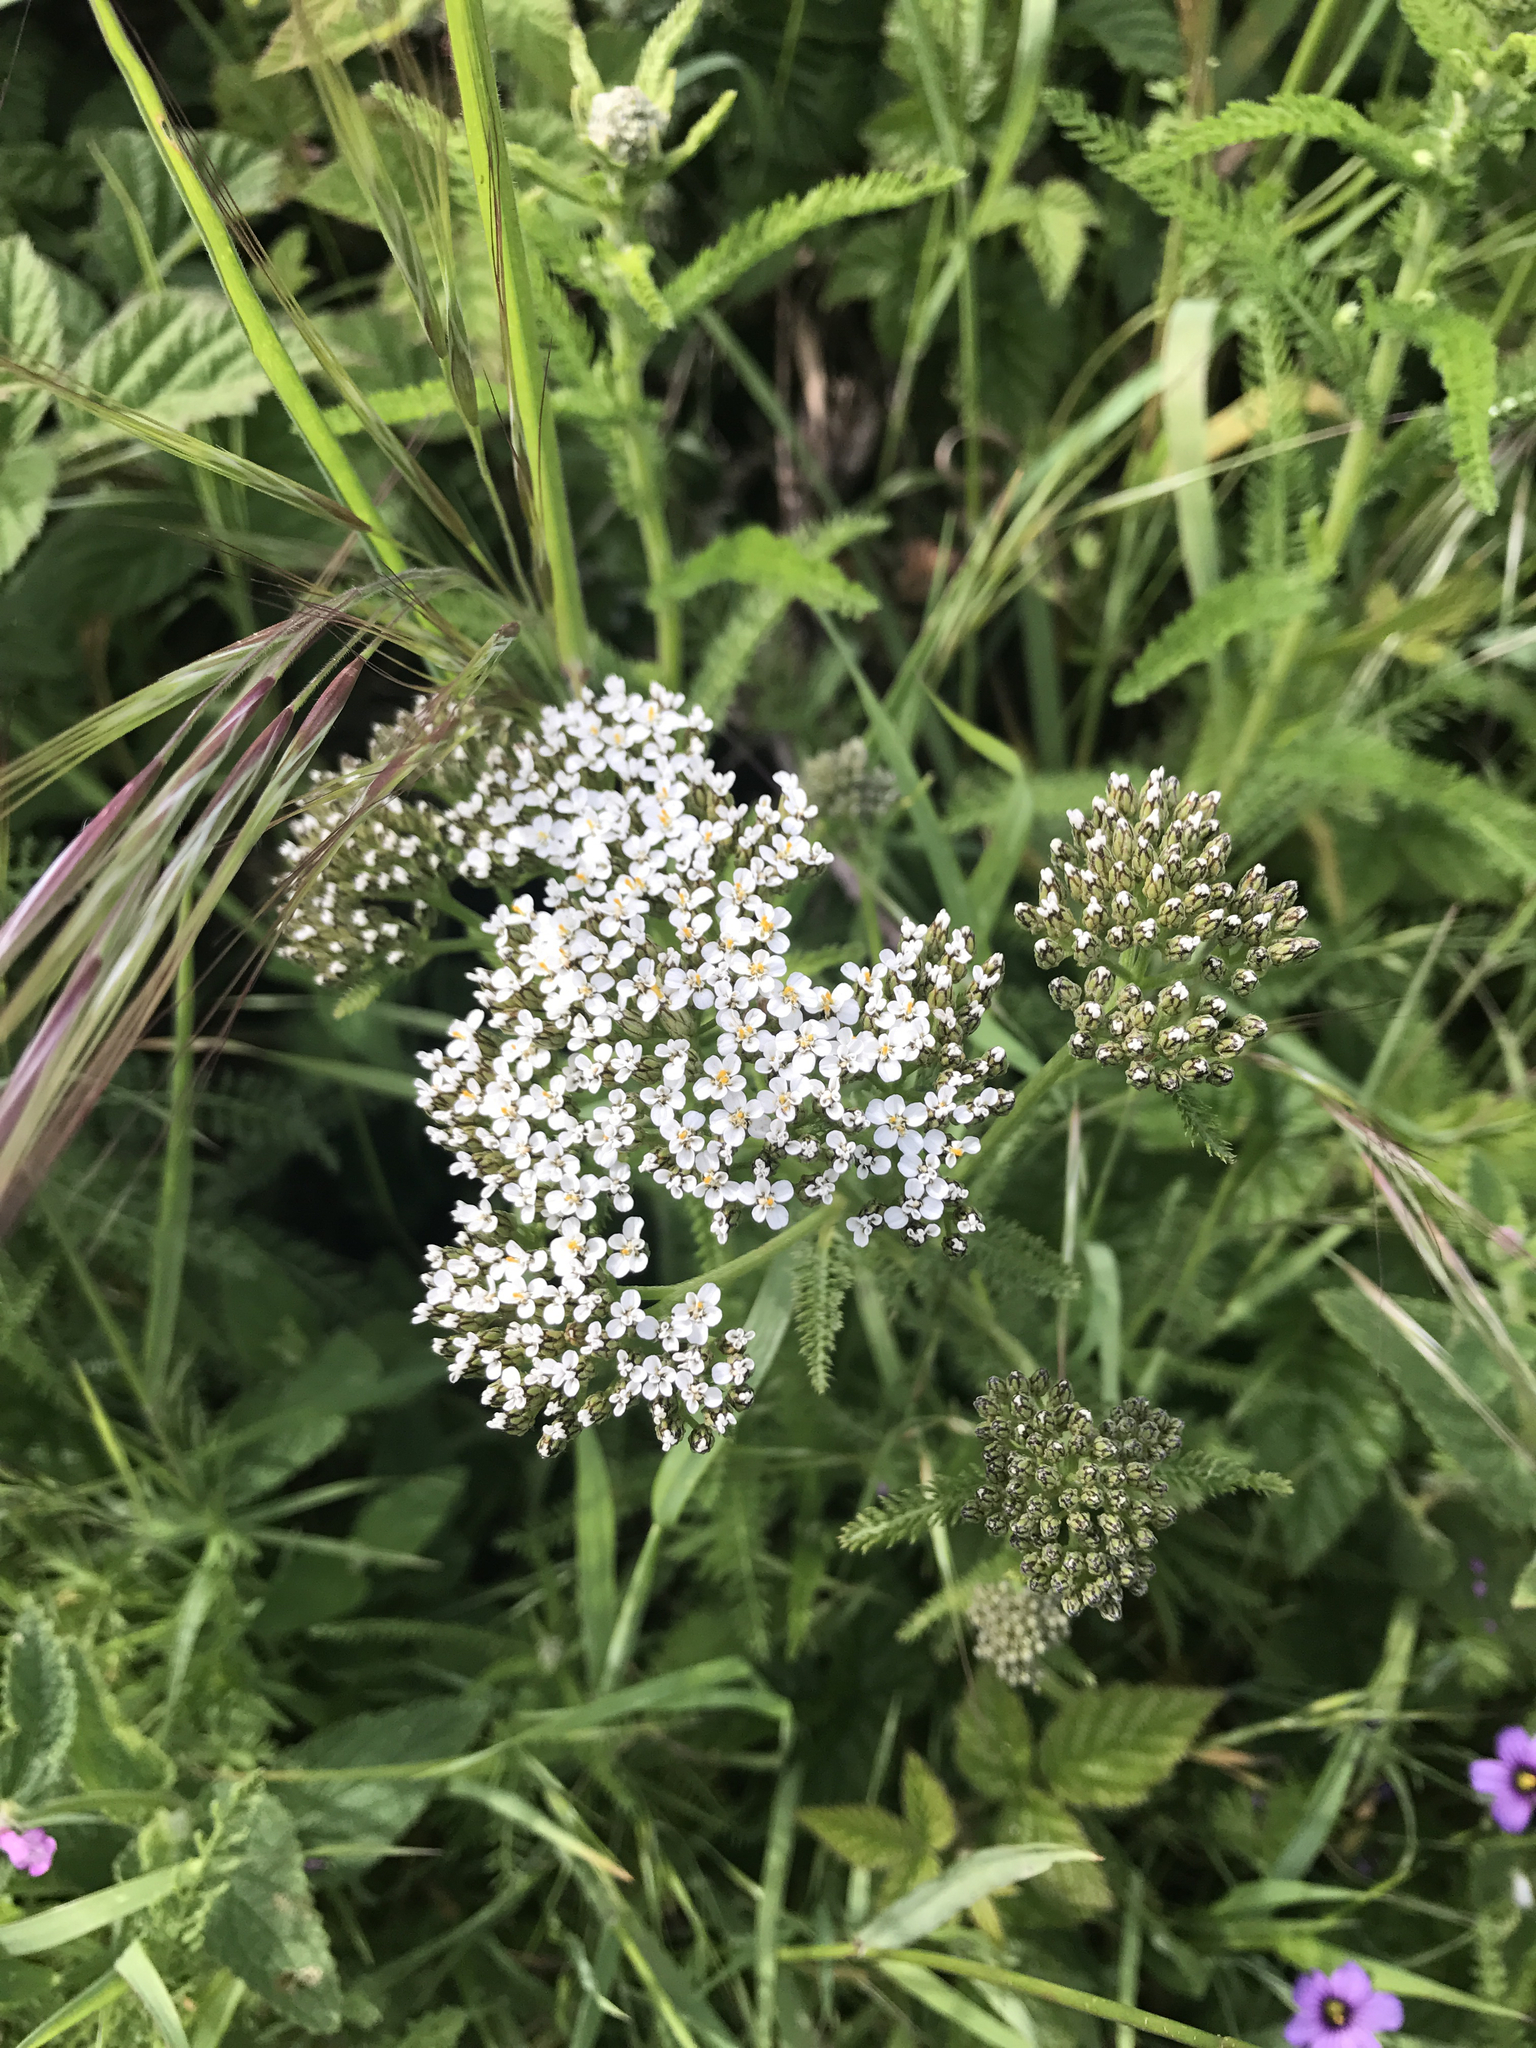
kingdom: Plantae
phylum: Tracheophyta
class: Magnoliopsida
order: Asterales
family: Asteraceae
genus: Achillea
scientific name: Achillea millefolium
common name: Yarrow
